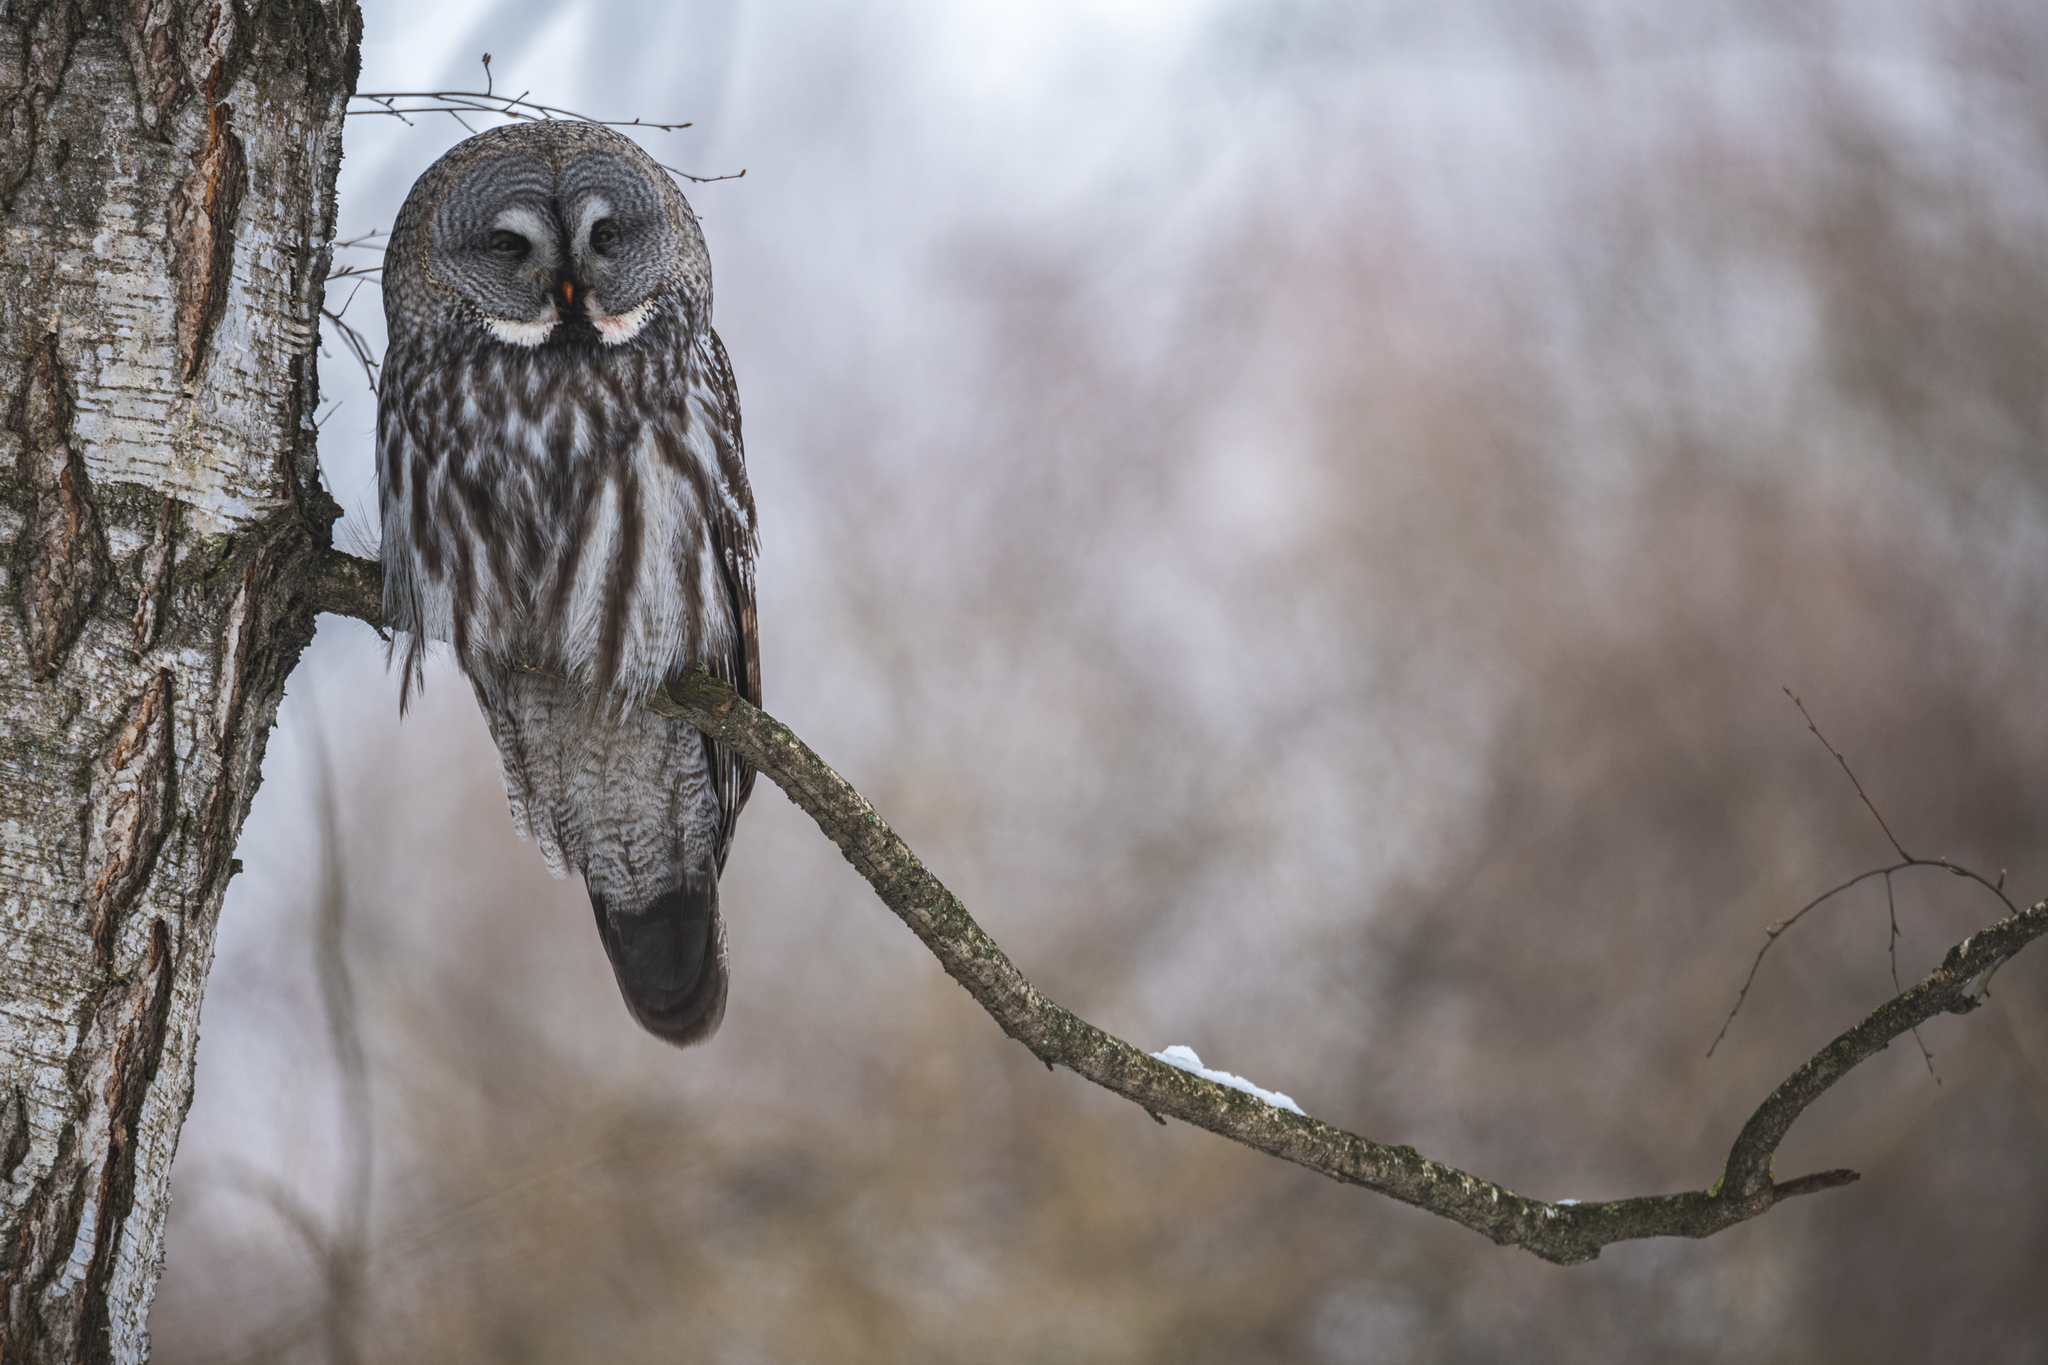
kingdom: Animalia
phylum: Chordata
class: Aves
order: Strigiformes
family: Strigidae
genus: Strix
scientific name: Strix nebulosa
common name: Great grey owl
